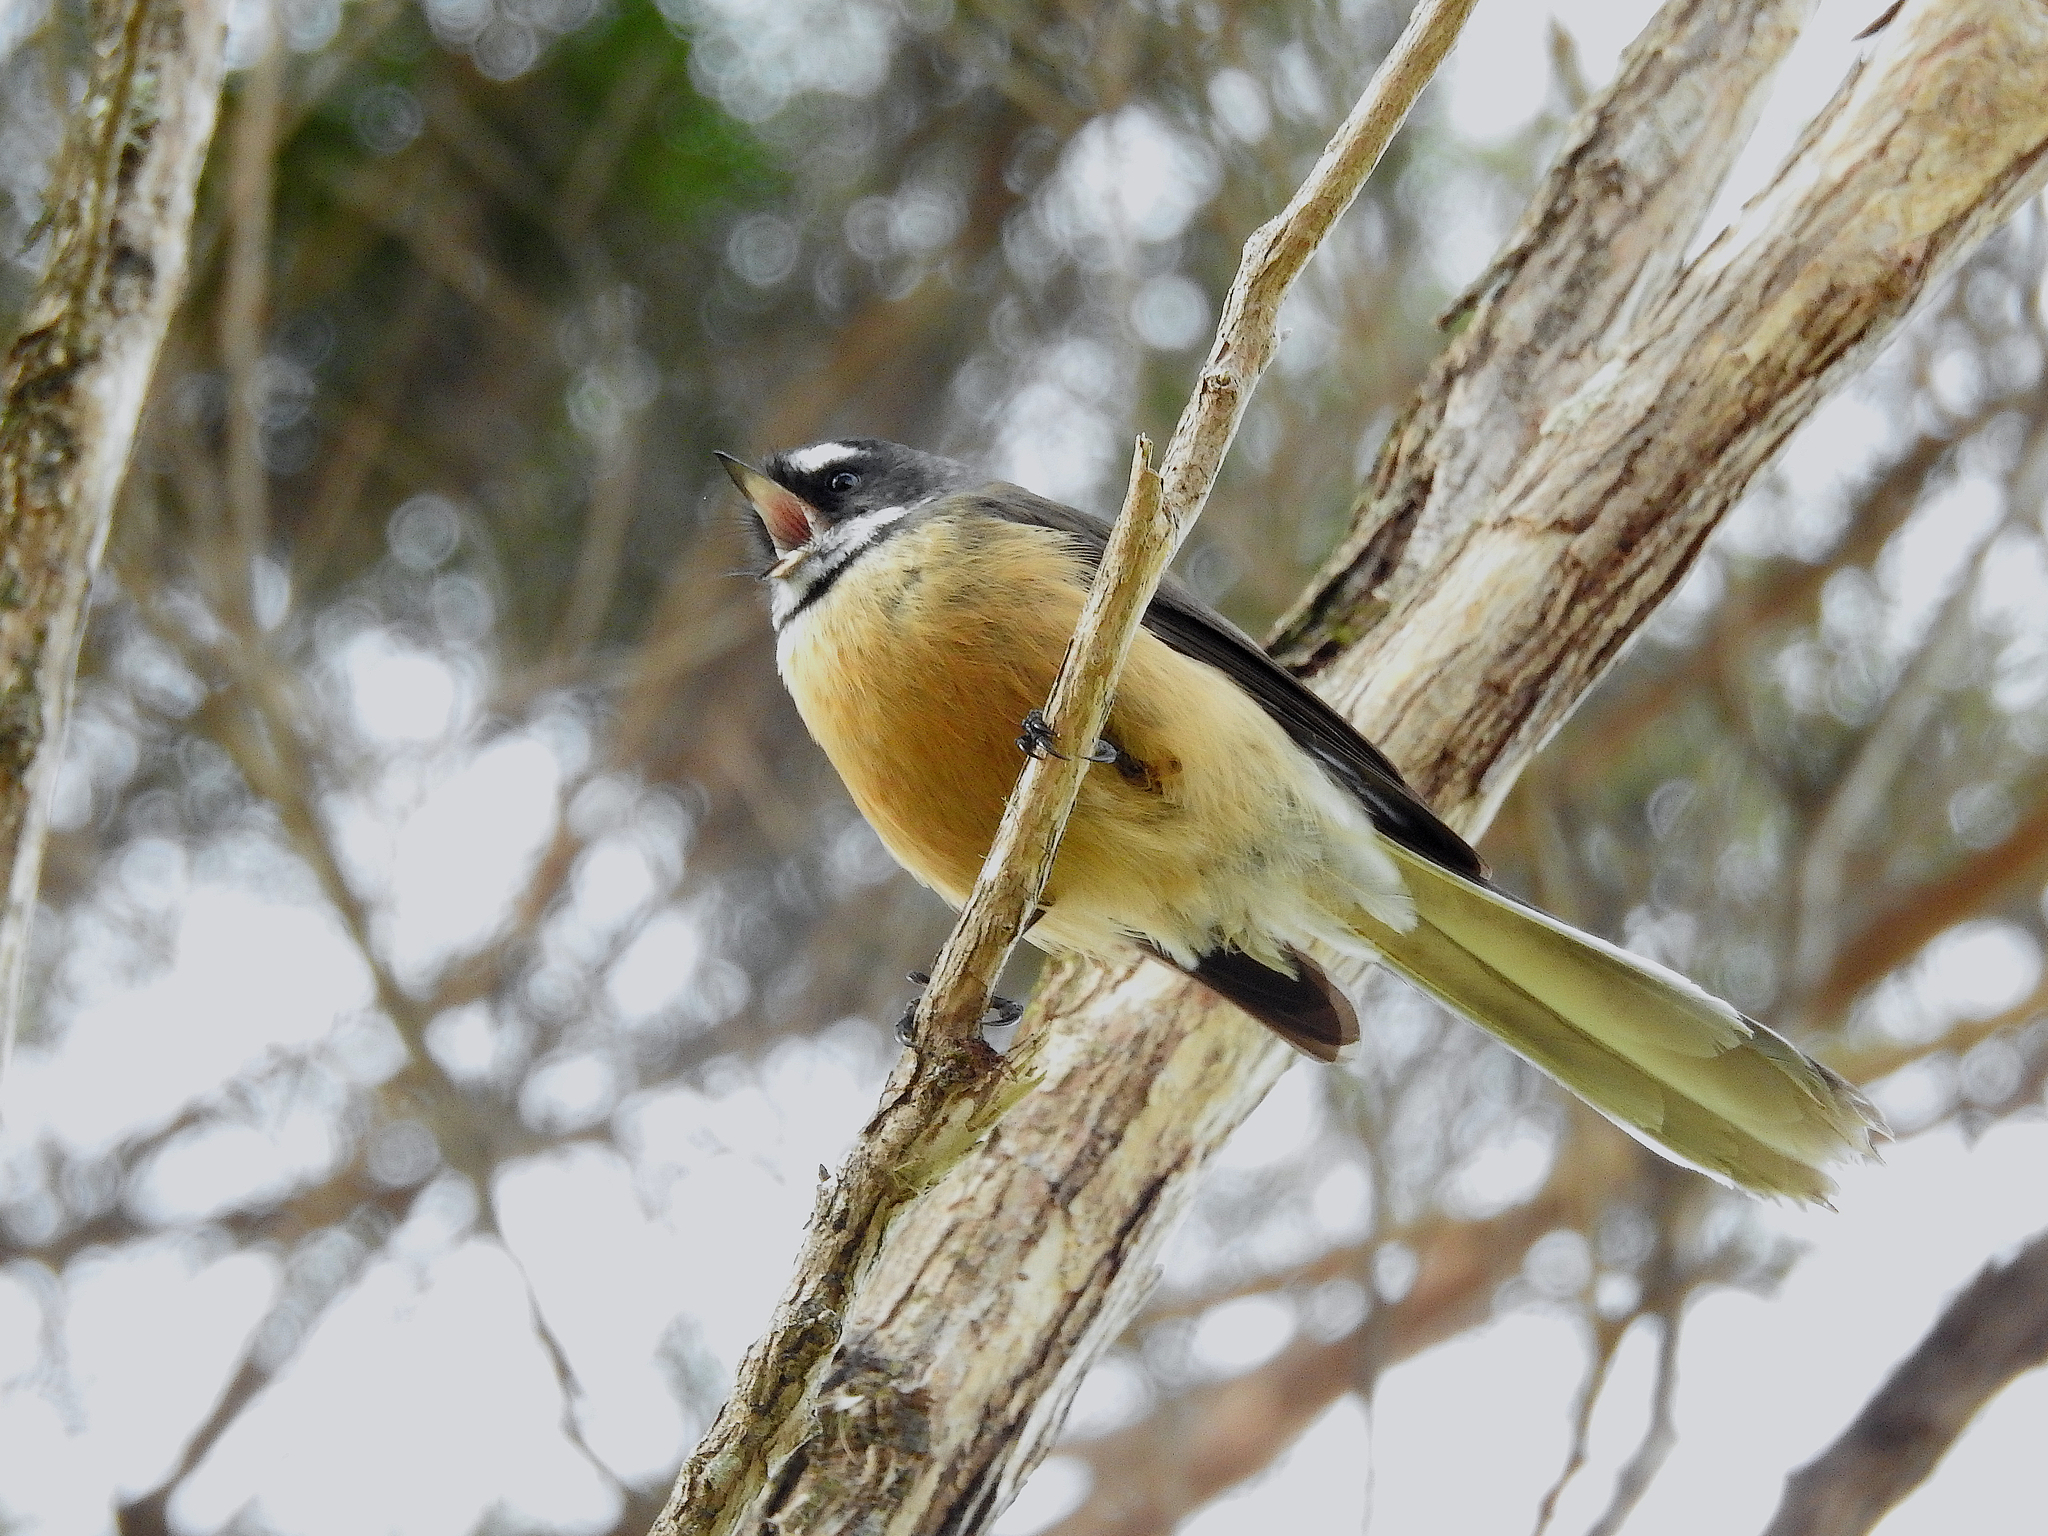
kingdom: Animalia
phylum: Chordata
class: Aves
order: Passeriformes
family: Rhipiduridae
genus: Rhipidura
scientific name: Rhipidura fuliginosa
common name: New zealand fantail
